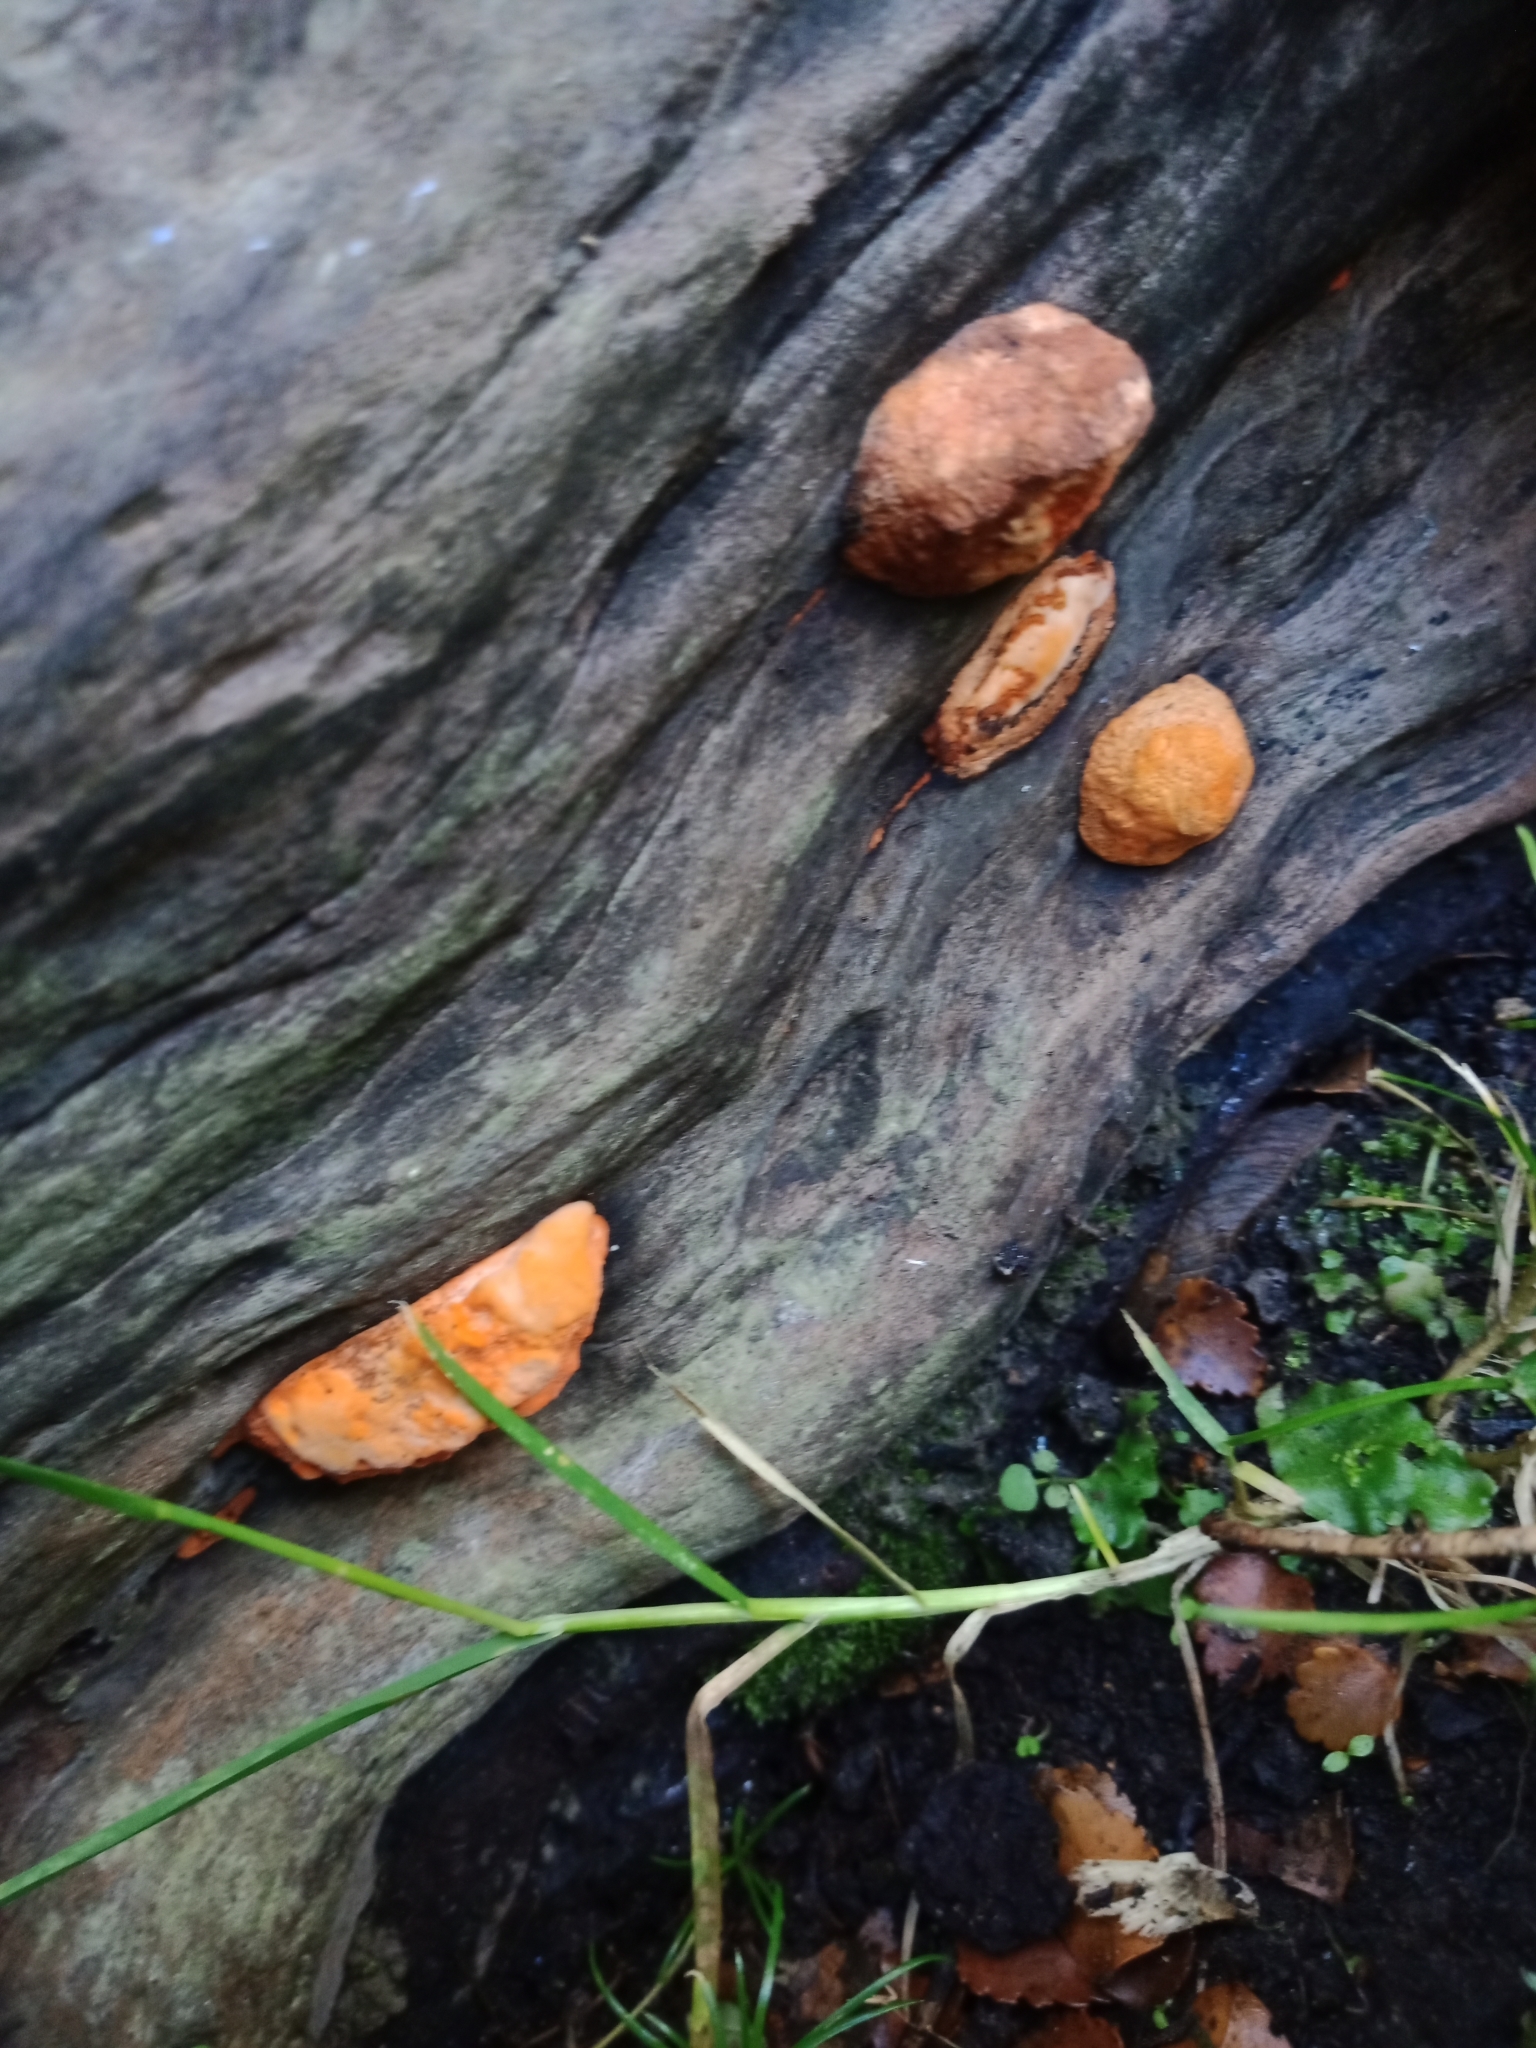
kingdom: Fungi
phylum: Basidiomycota
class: Agaricomycetes
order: Polyporales
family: Polyporaceae
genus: Trametes
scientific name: Trametes coccinea
